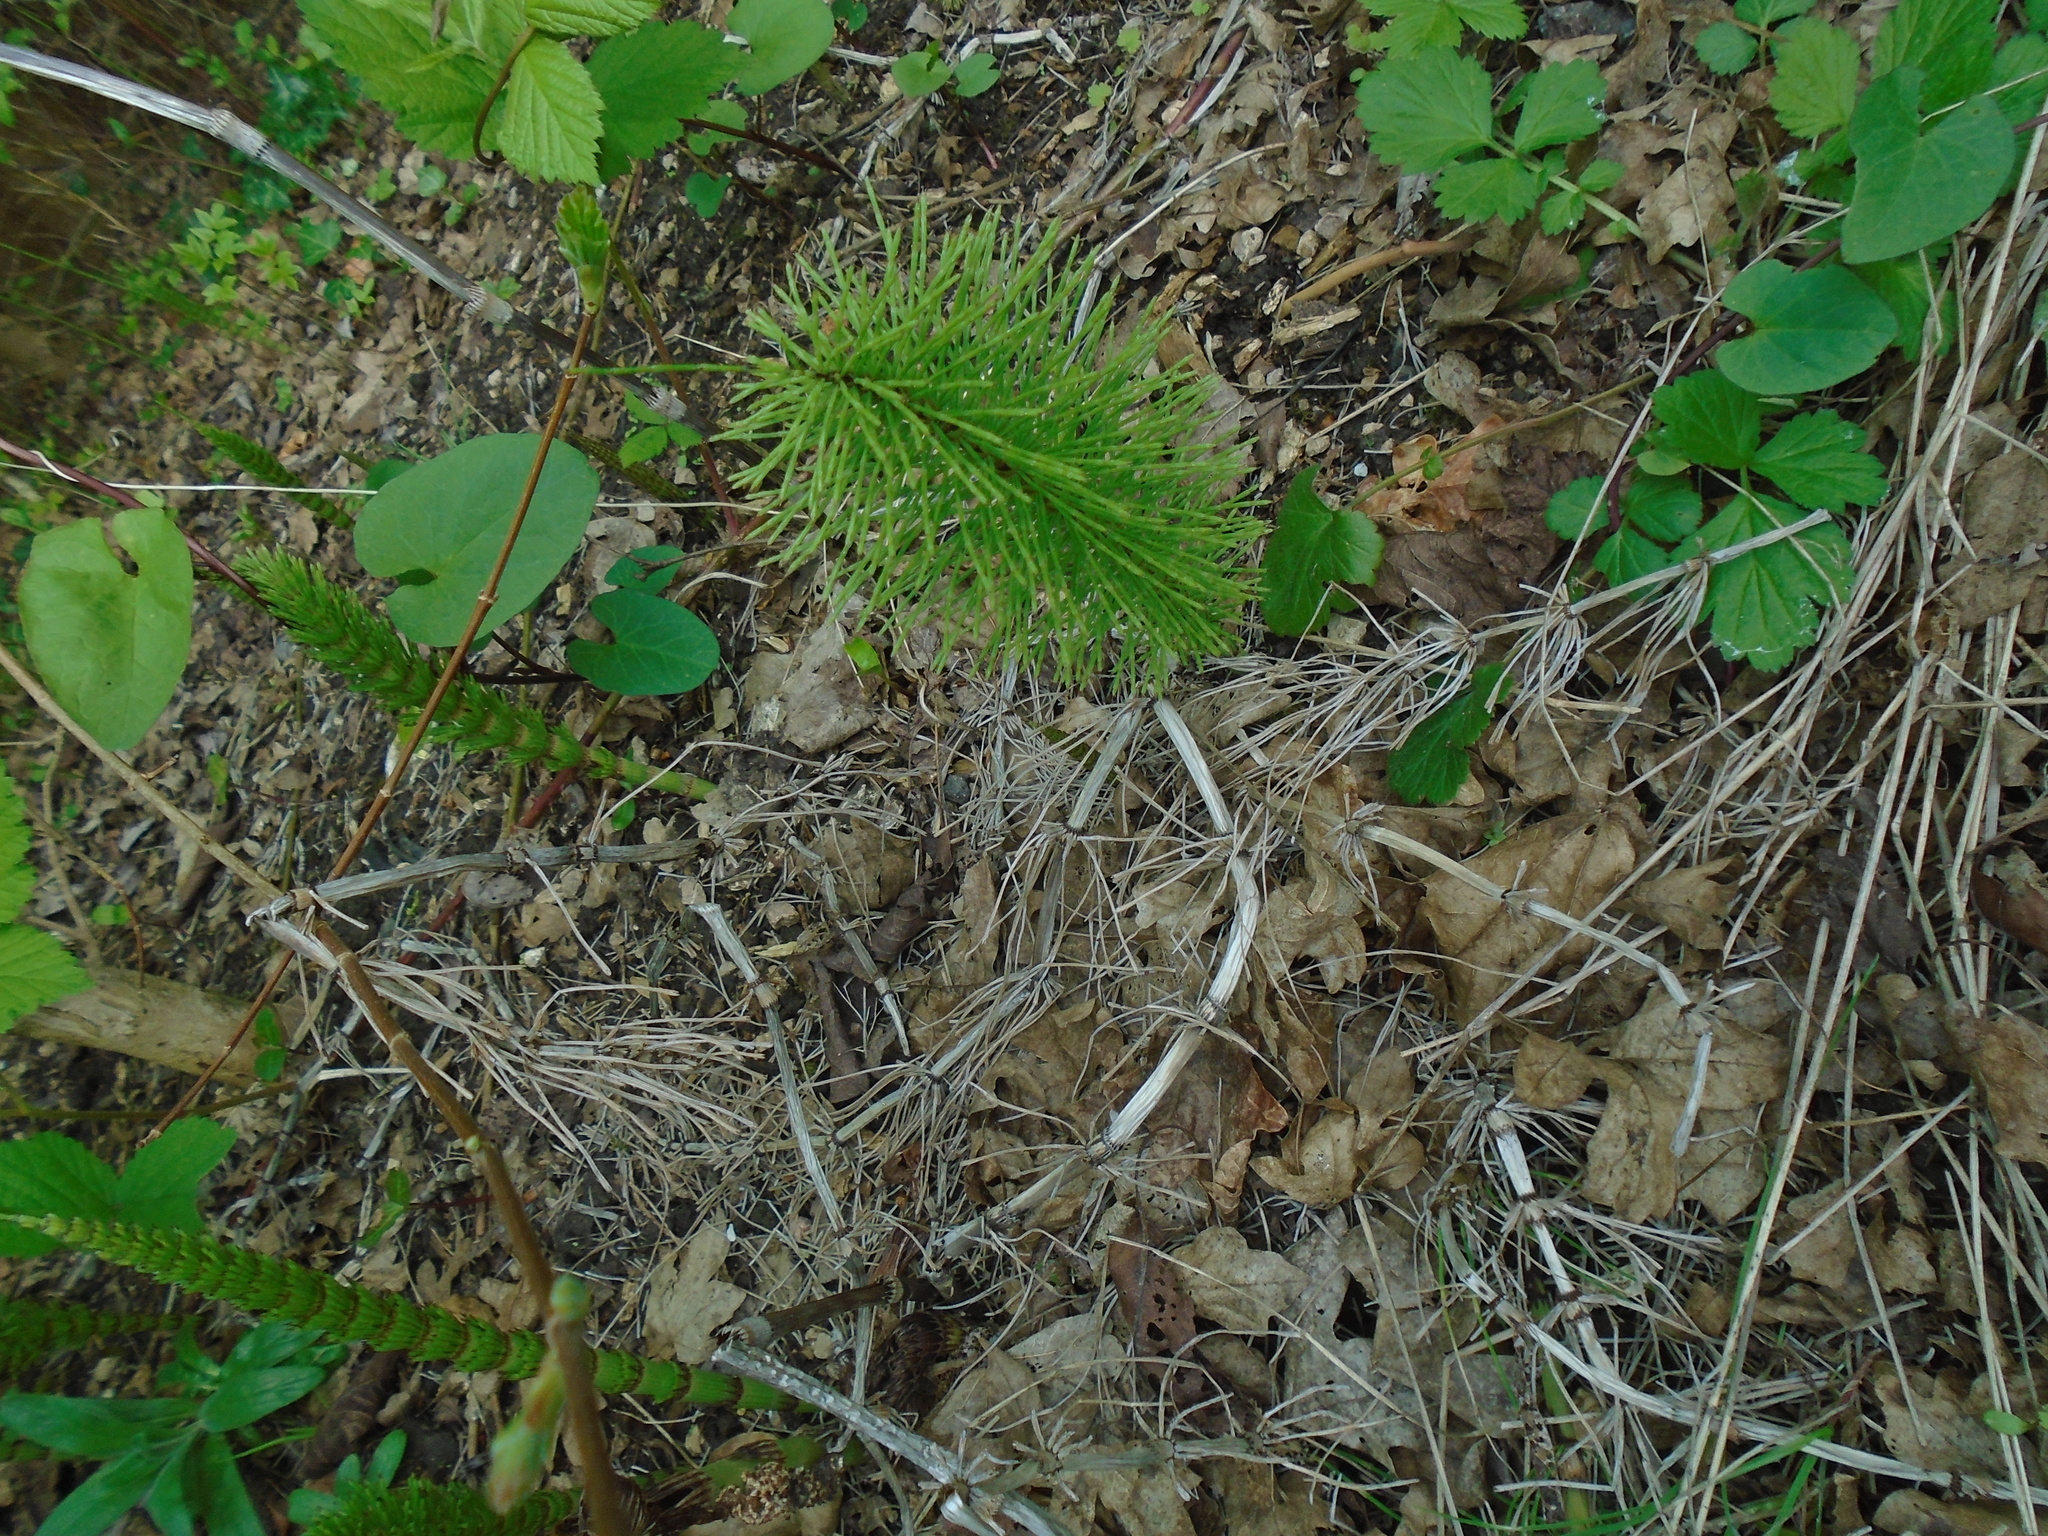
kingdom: Plantae
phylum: Tracheophyta
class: Polypodiopsida
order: Equisetales
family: Equisetaceae
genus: Equisetum
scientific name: Equisetum telmateia
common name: Great horsetail
